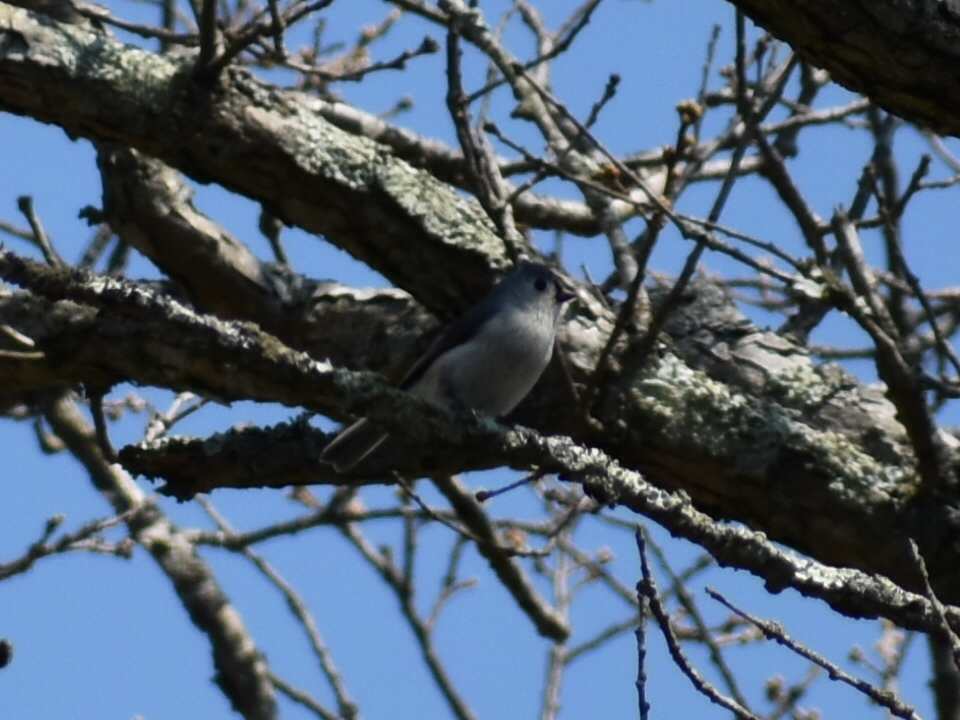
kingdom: Animalia
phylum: Chordata
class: Aves
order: Passeriformes
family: Paridae
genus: Baeolophus
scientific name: Baeolophus bicolor
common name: Tufted titmouse
